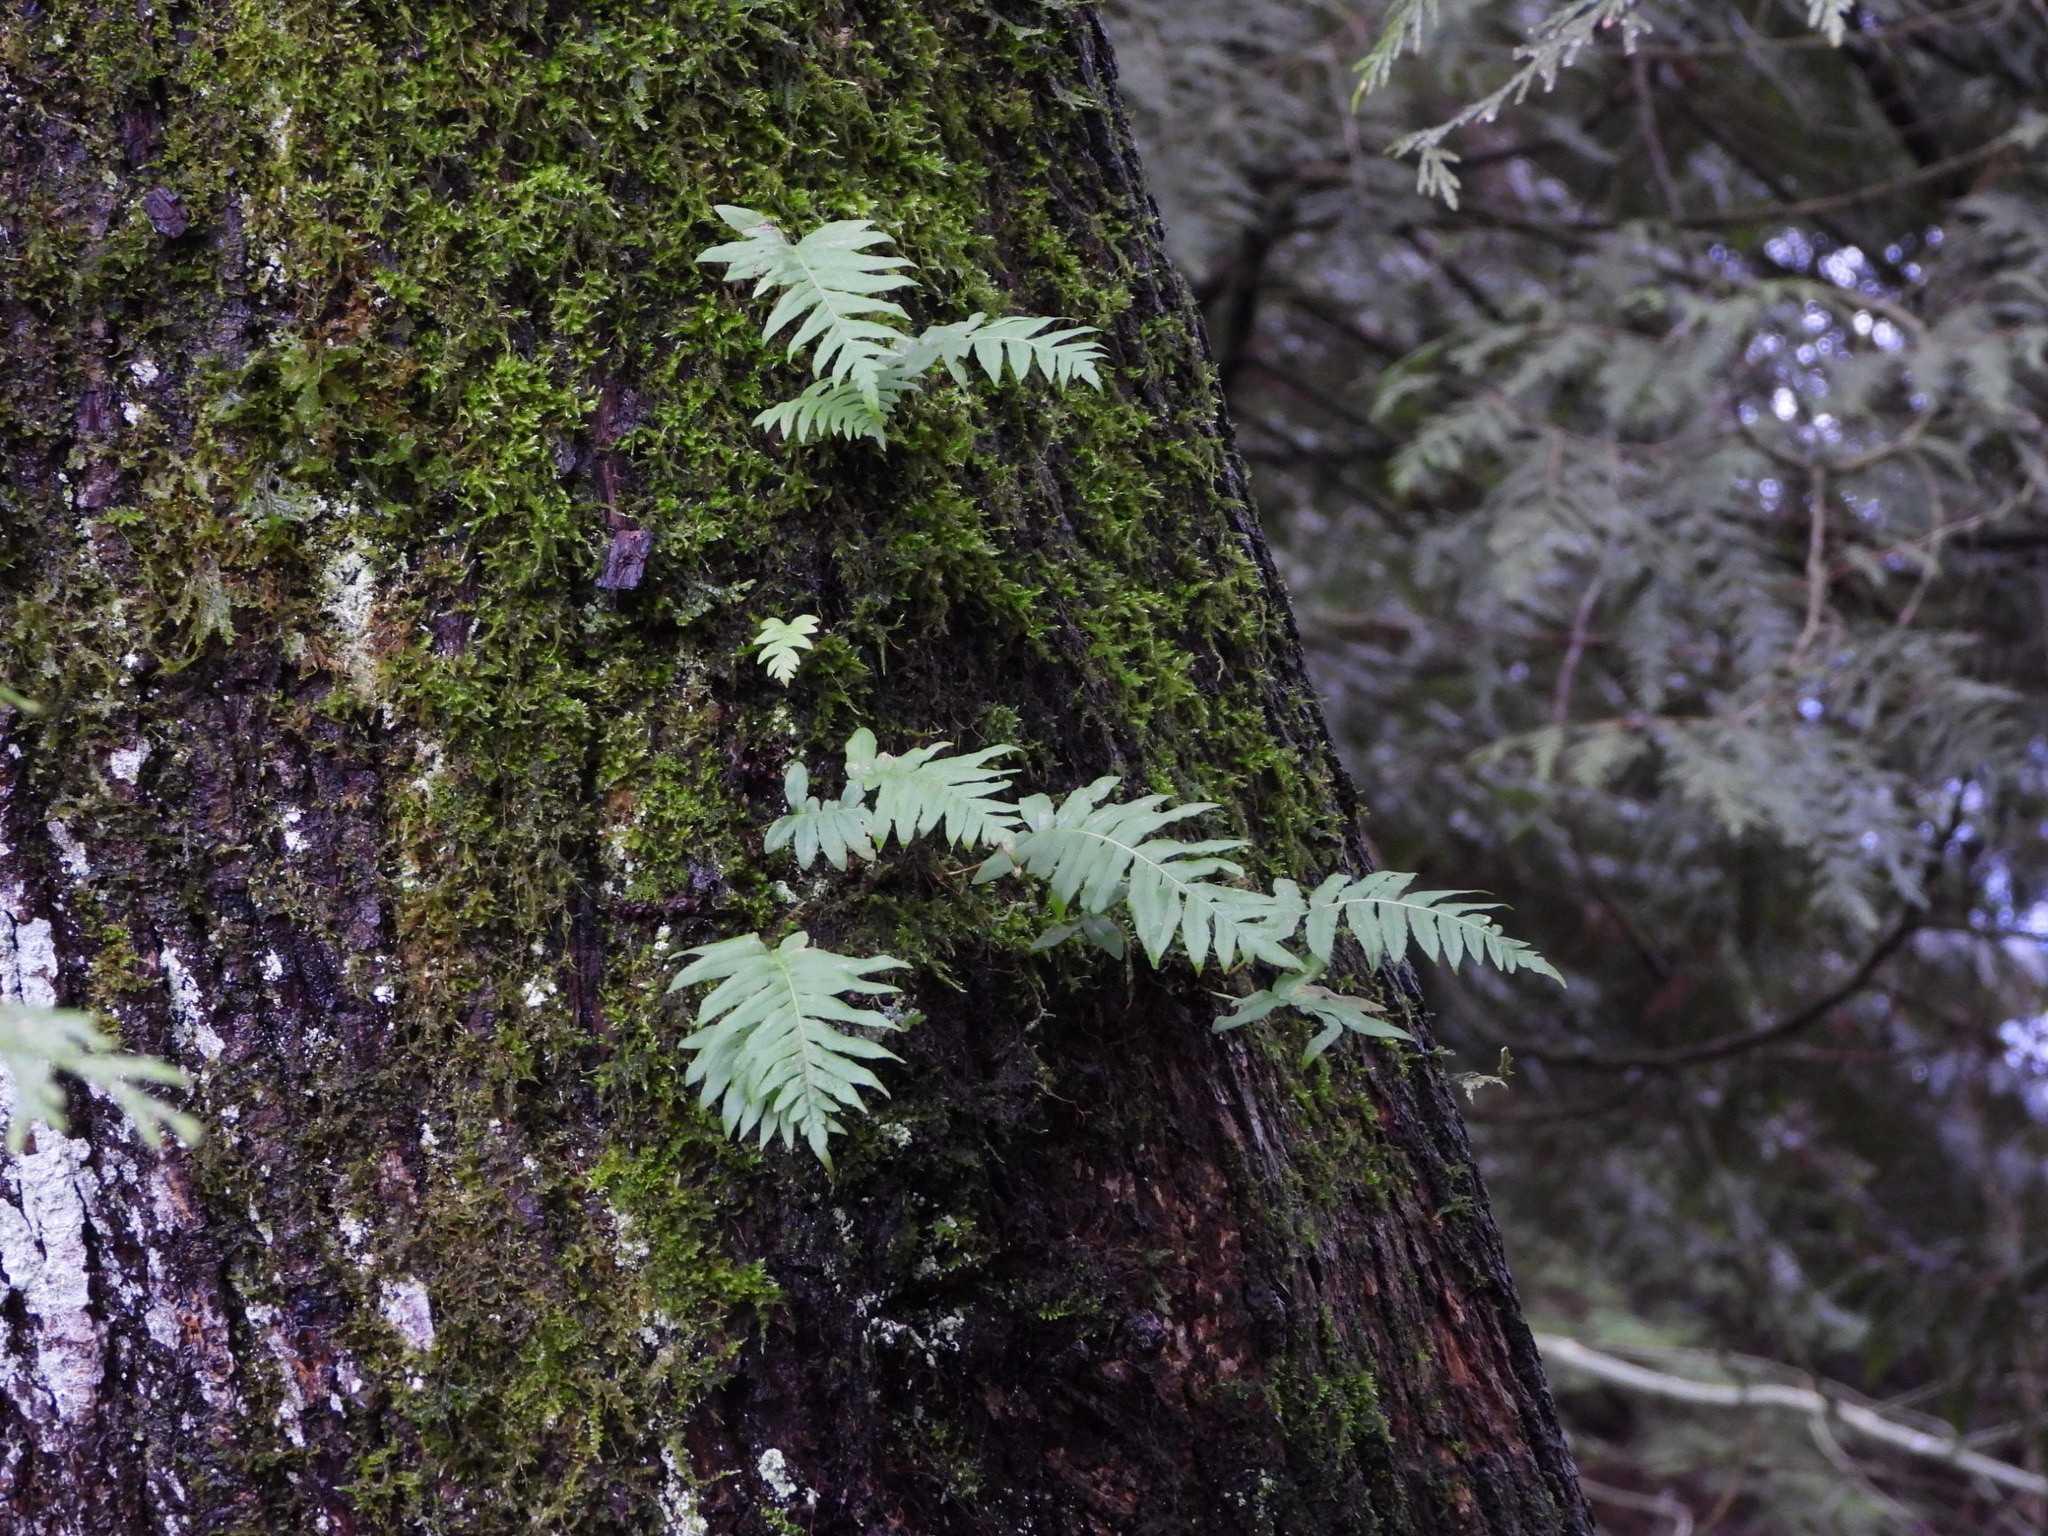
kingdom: Plantae
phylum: Tracheophyta
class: Polypodiopsida
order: Polypodiales
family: Polypodiaceae
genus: Polypodium
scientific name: Polypodium glycyrrhiza
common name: Licorice fern
